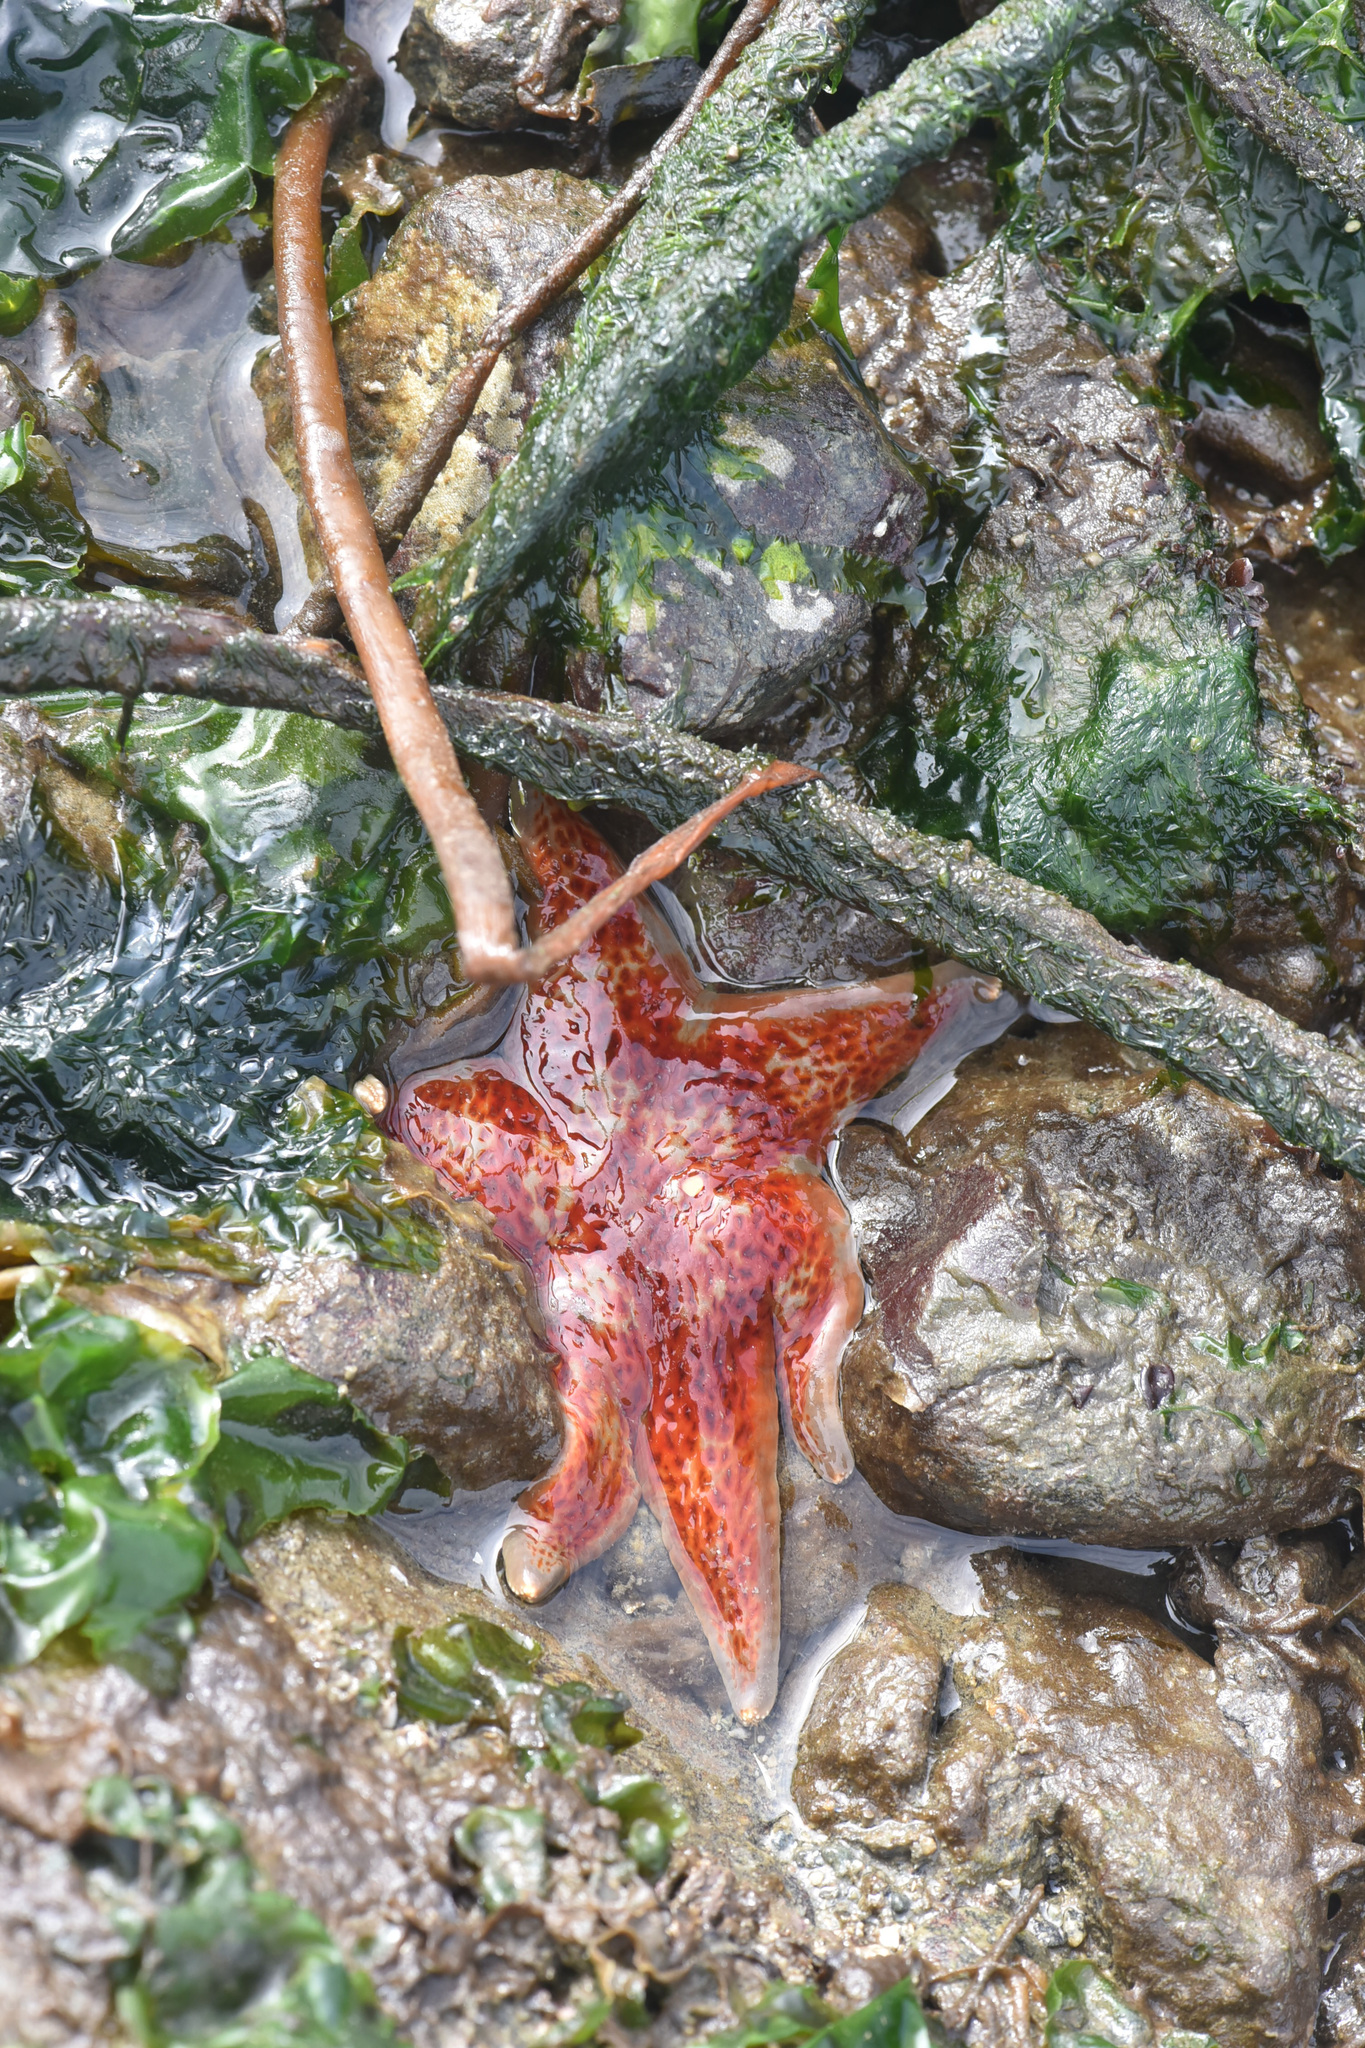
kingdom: Animalia
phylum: Echinodermata
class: Asteroidea
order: Valvatida
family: Asteropseidae
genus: Dermasterias
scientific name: Dermasterias imbricata
